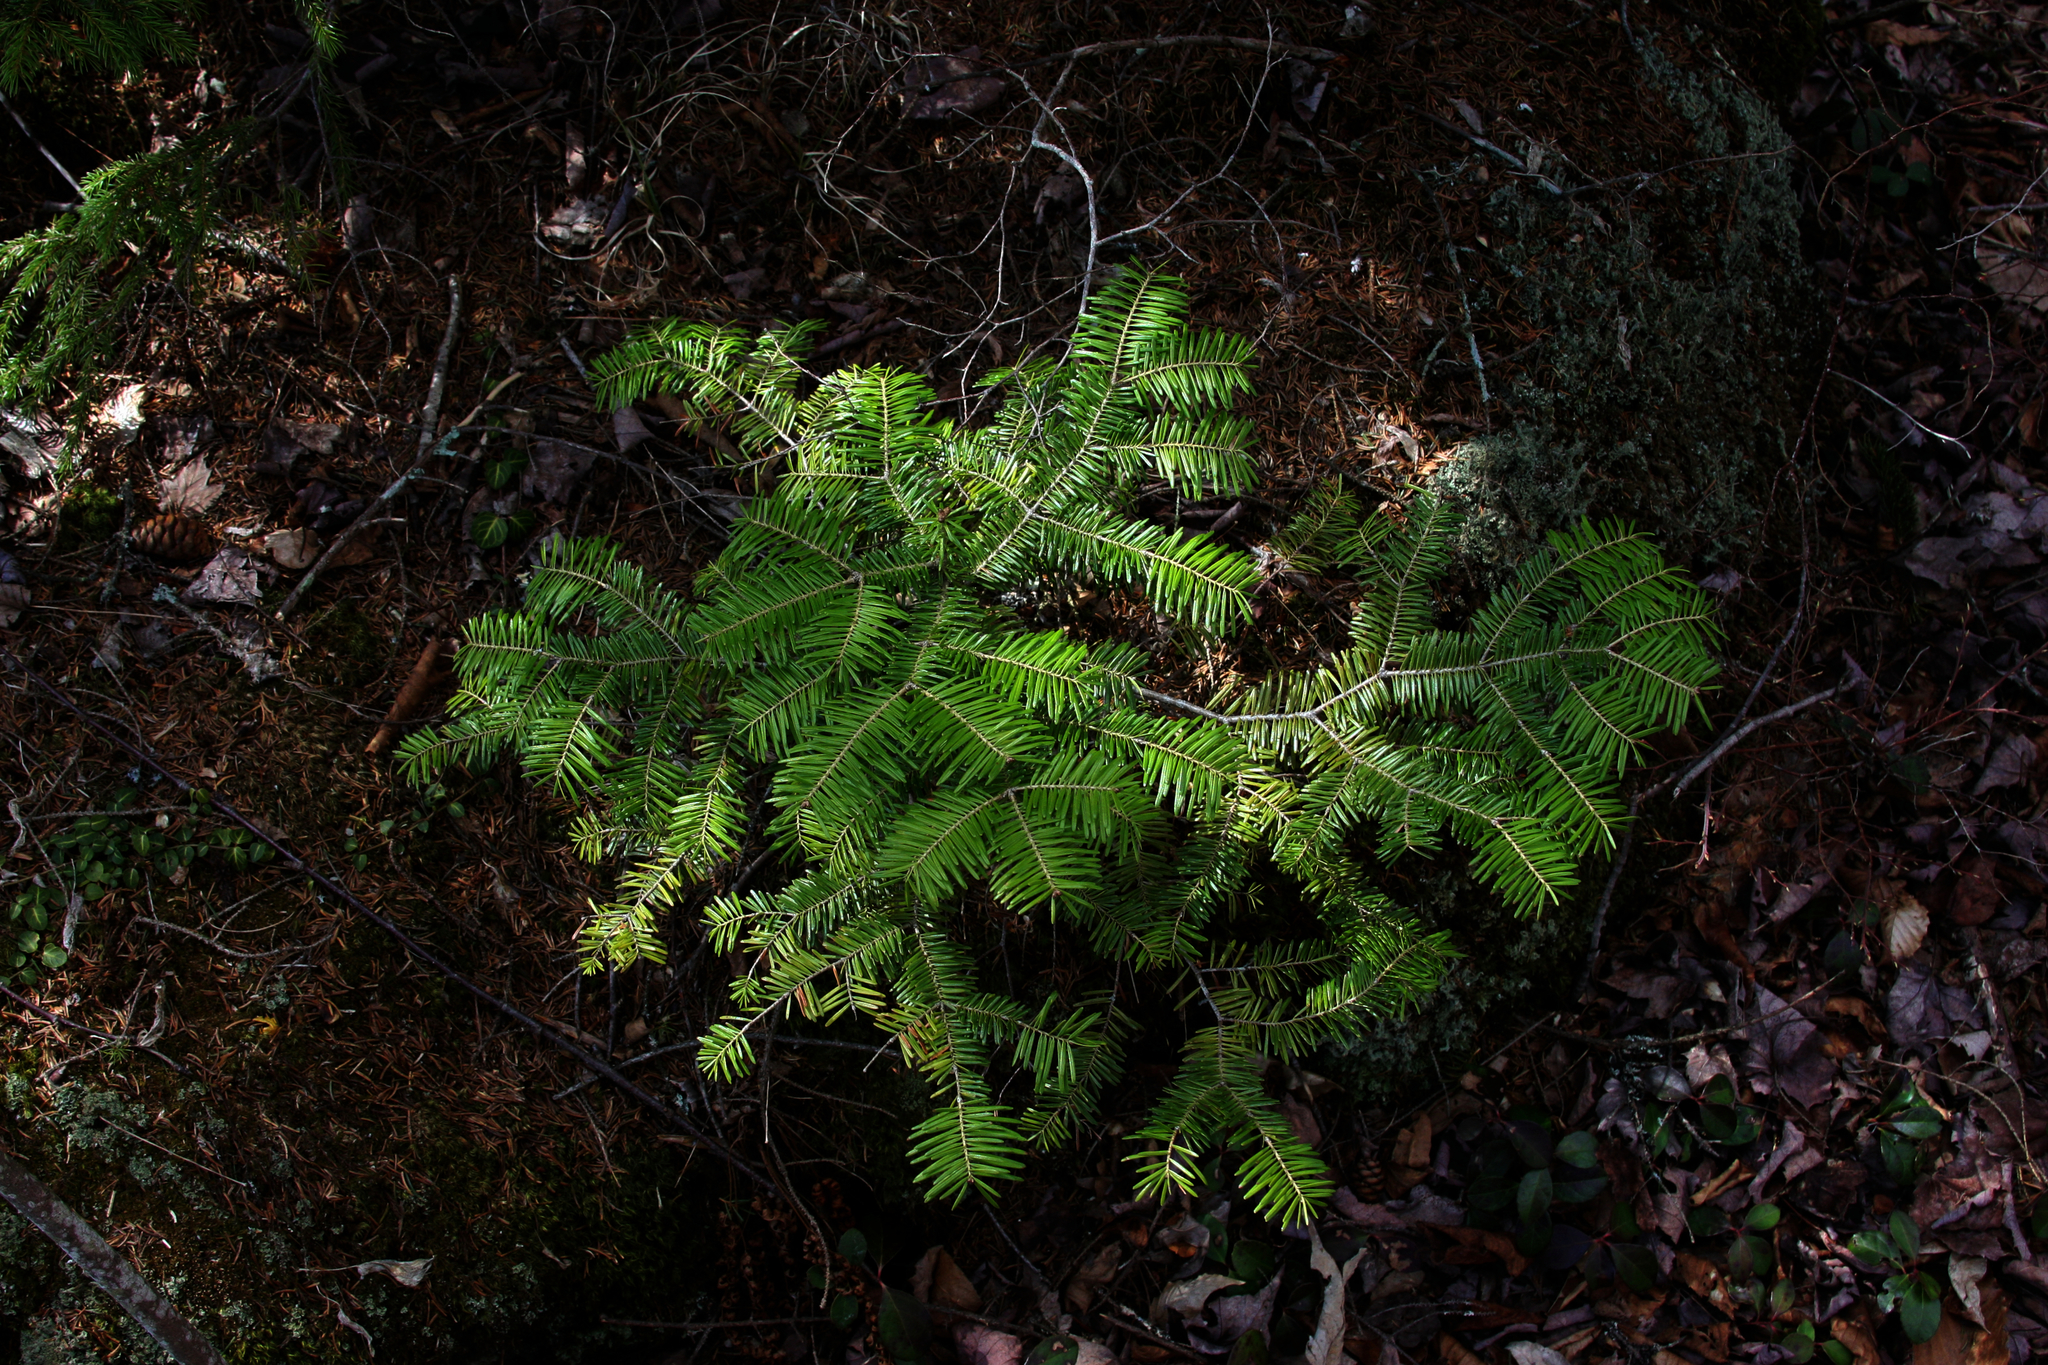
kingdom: Plantae
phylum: Tracheophyta
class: Pinopsida
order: Pinales
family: Pinaceae
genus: Abies
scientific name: Abies balsamea
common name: Balsam fir
